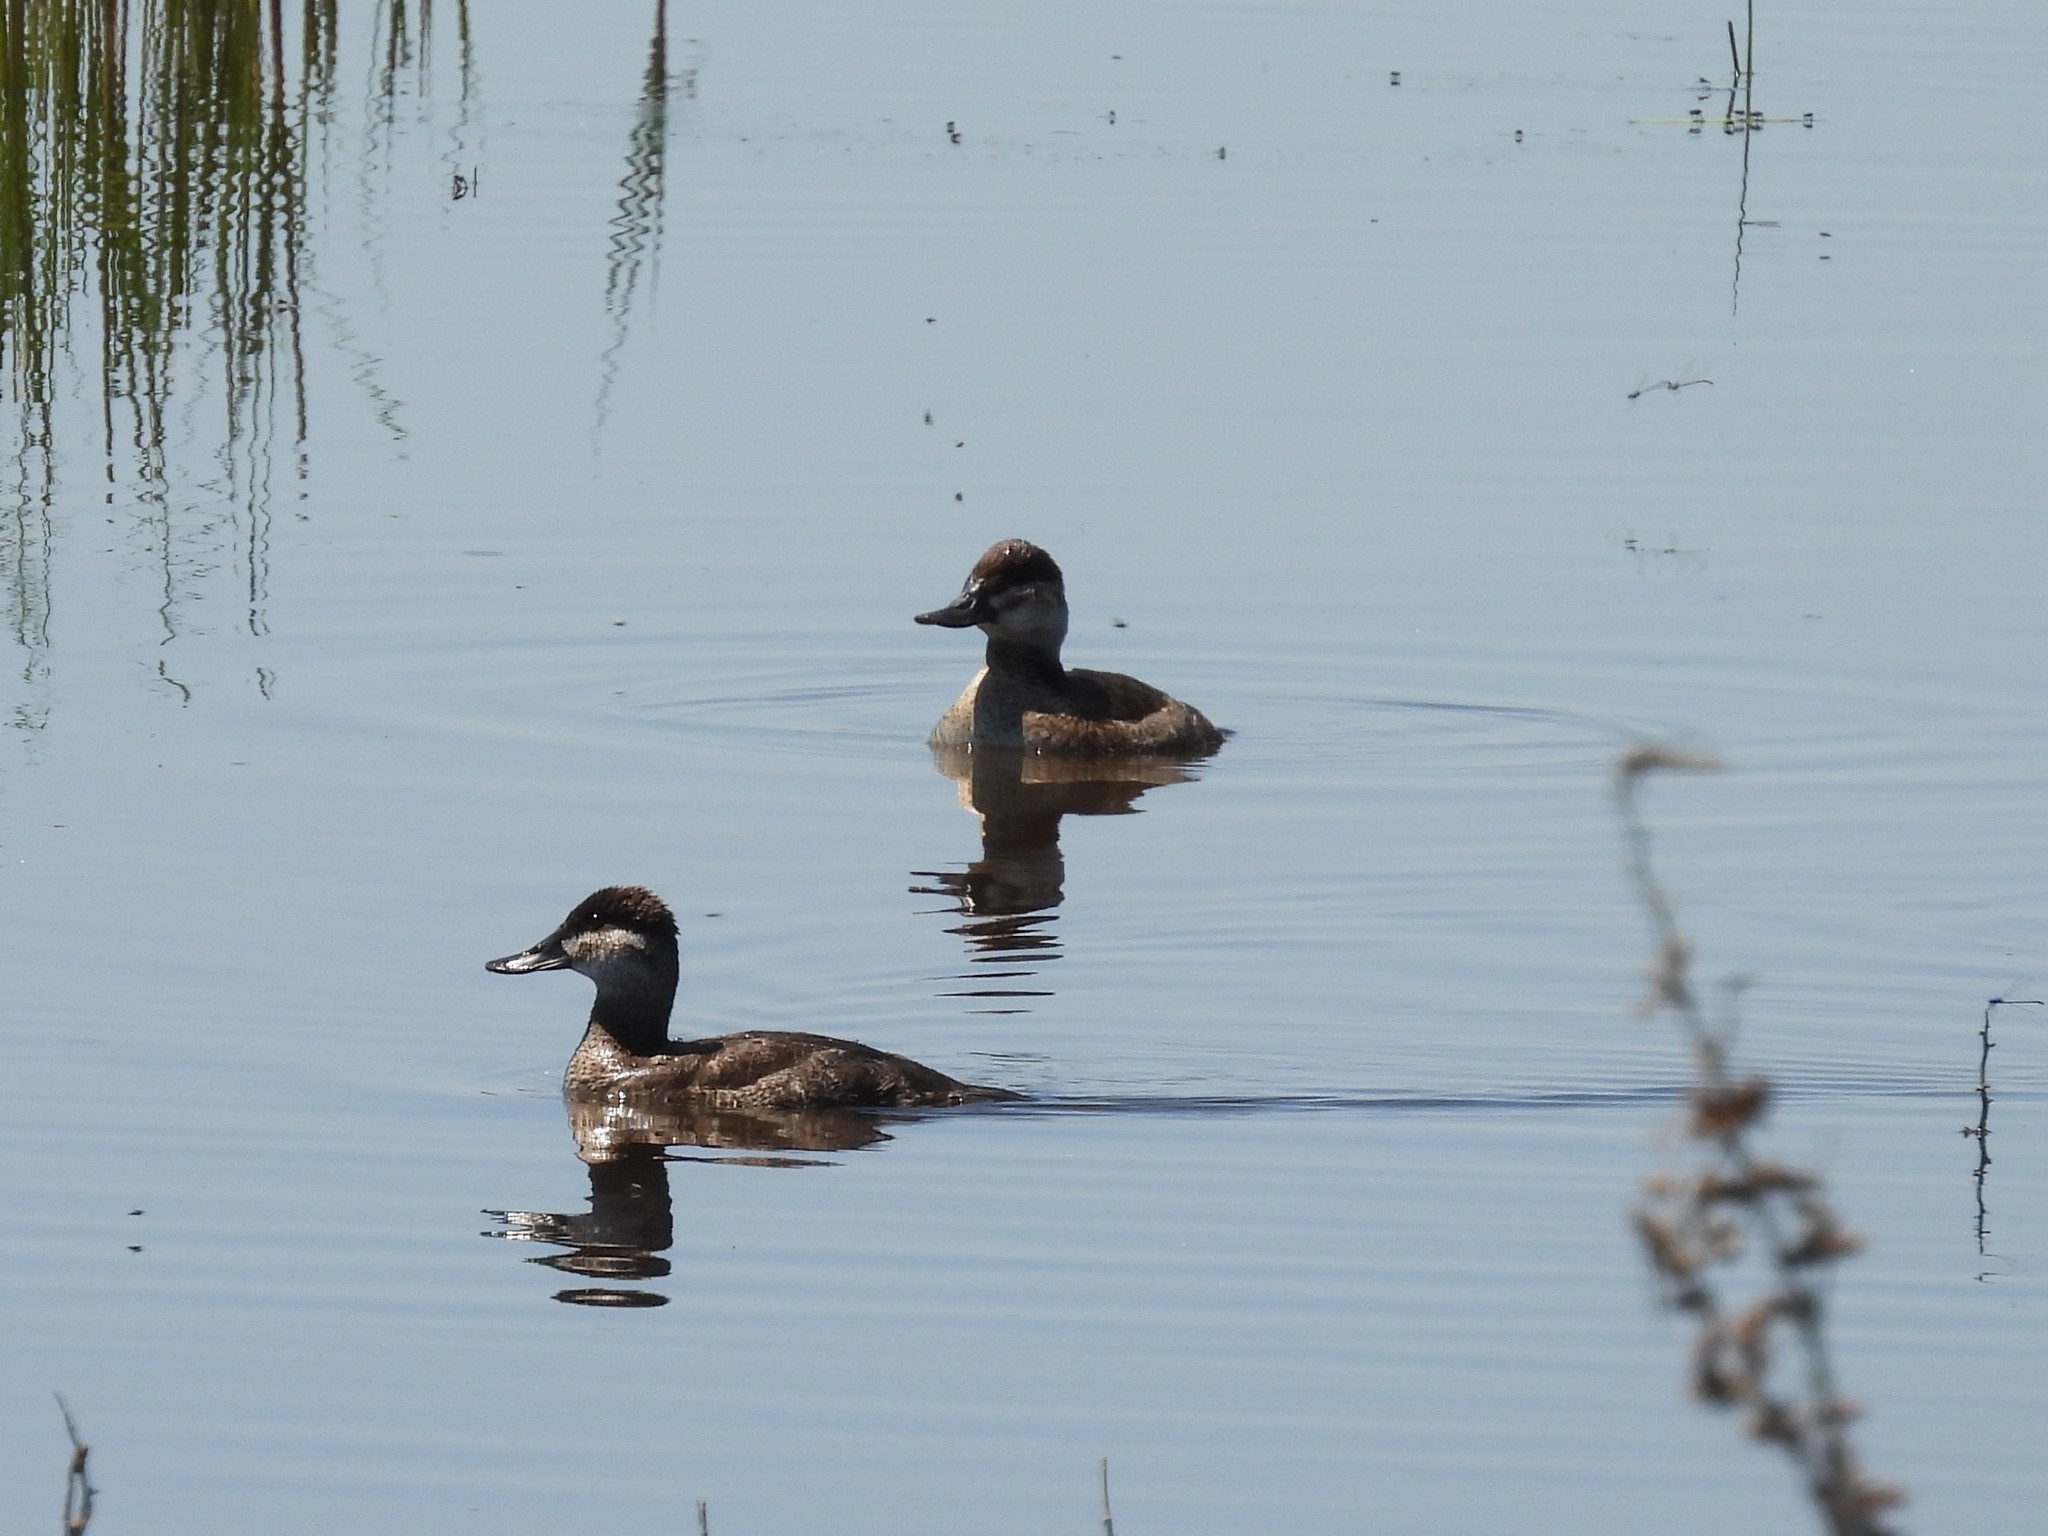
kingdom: Animalia
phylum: Chordata
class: Aves
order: Anseriformes
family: Anatidae
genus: Oxyura
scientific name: Oxyura jamaicensis
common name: Ruddy duck
